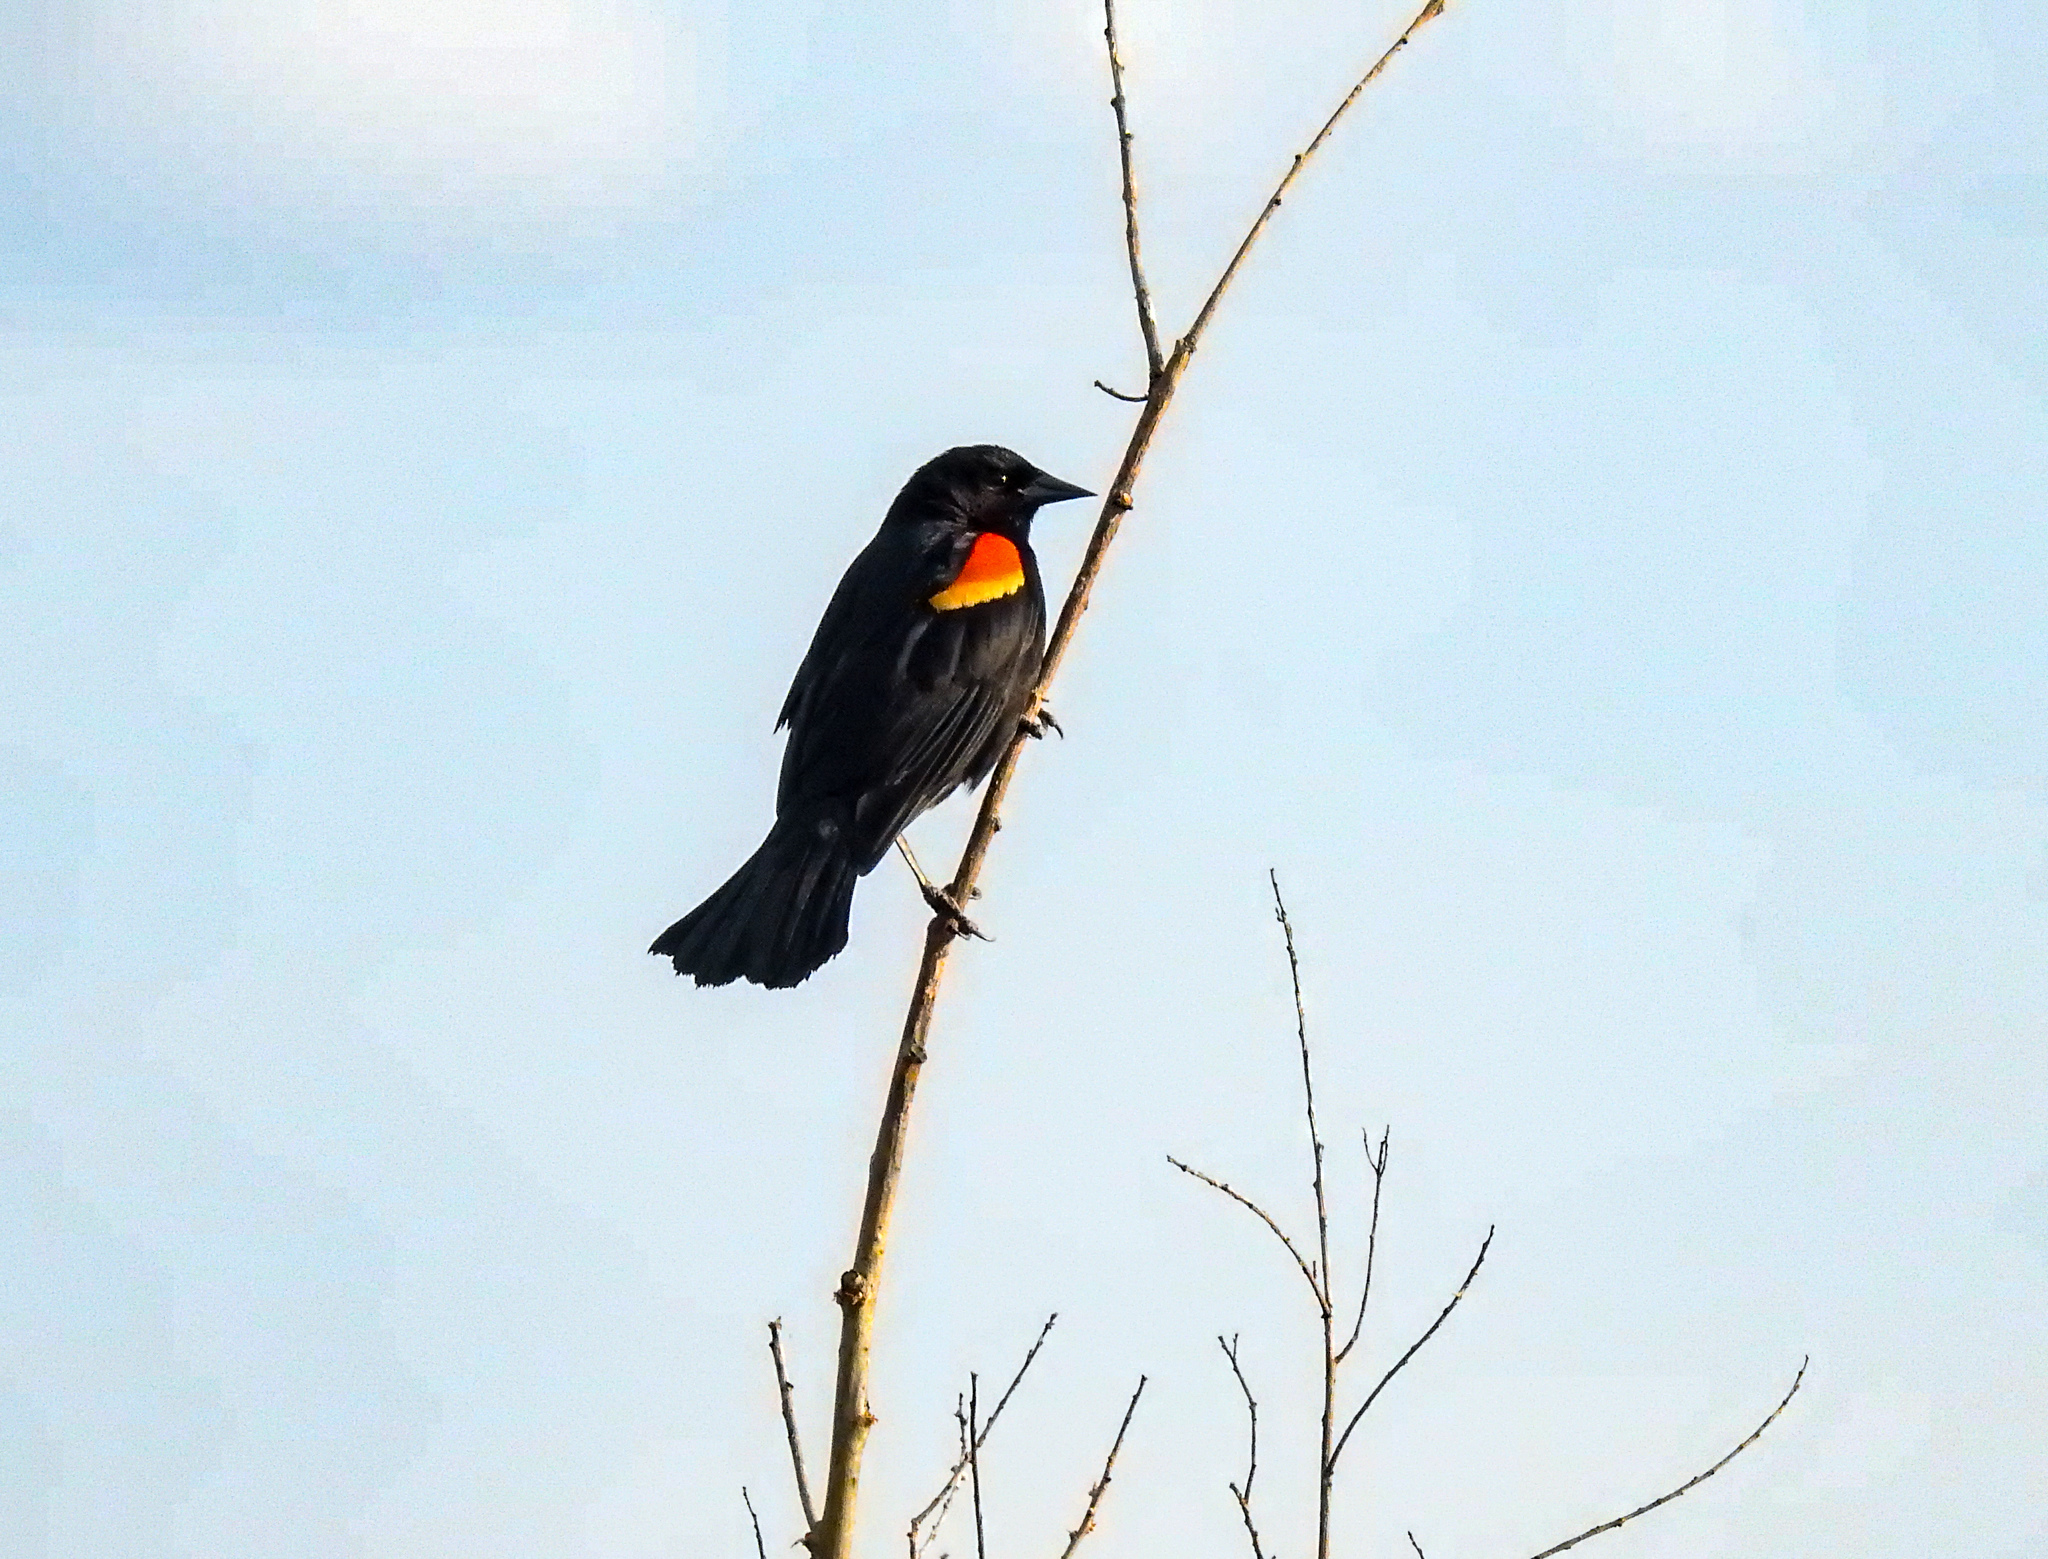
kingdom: Animalia
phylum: Chordata
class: Aves
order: Passeriformes
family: Icteridae
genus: Agelaius
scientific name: Agelaius phoeniceus
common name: Red-winged blackbird
